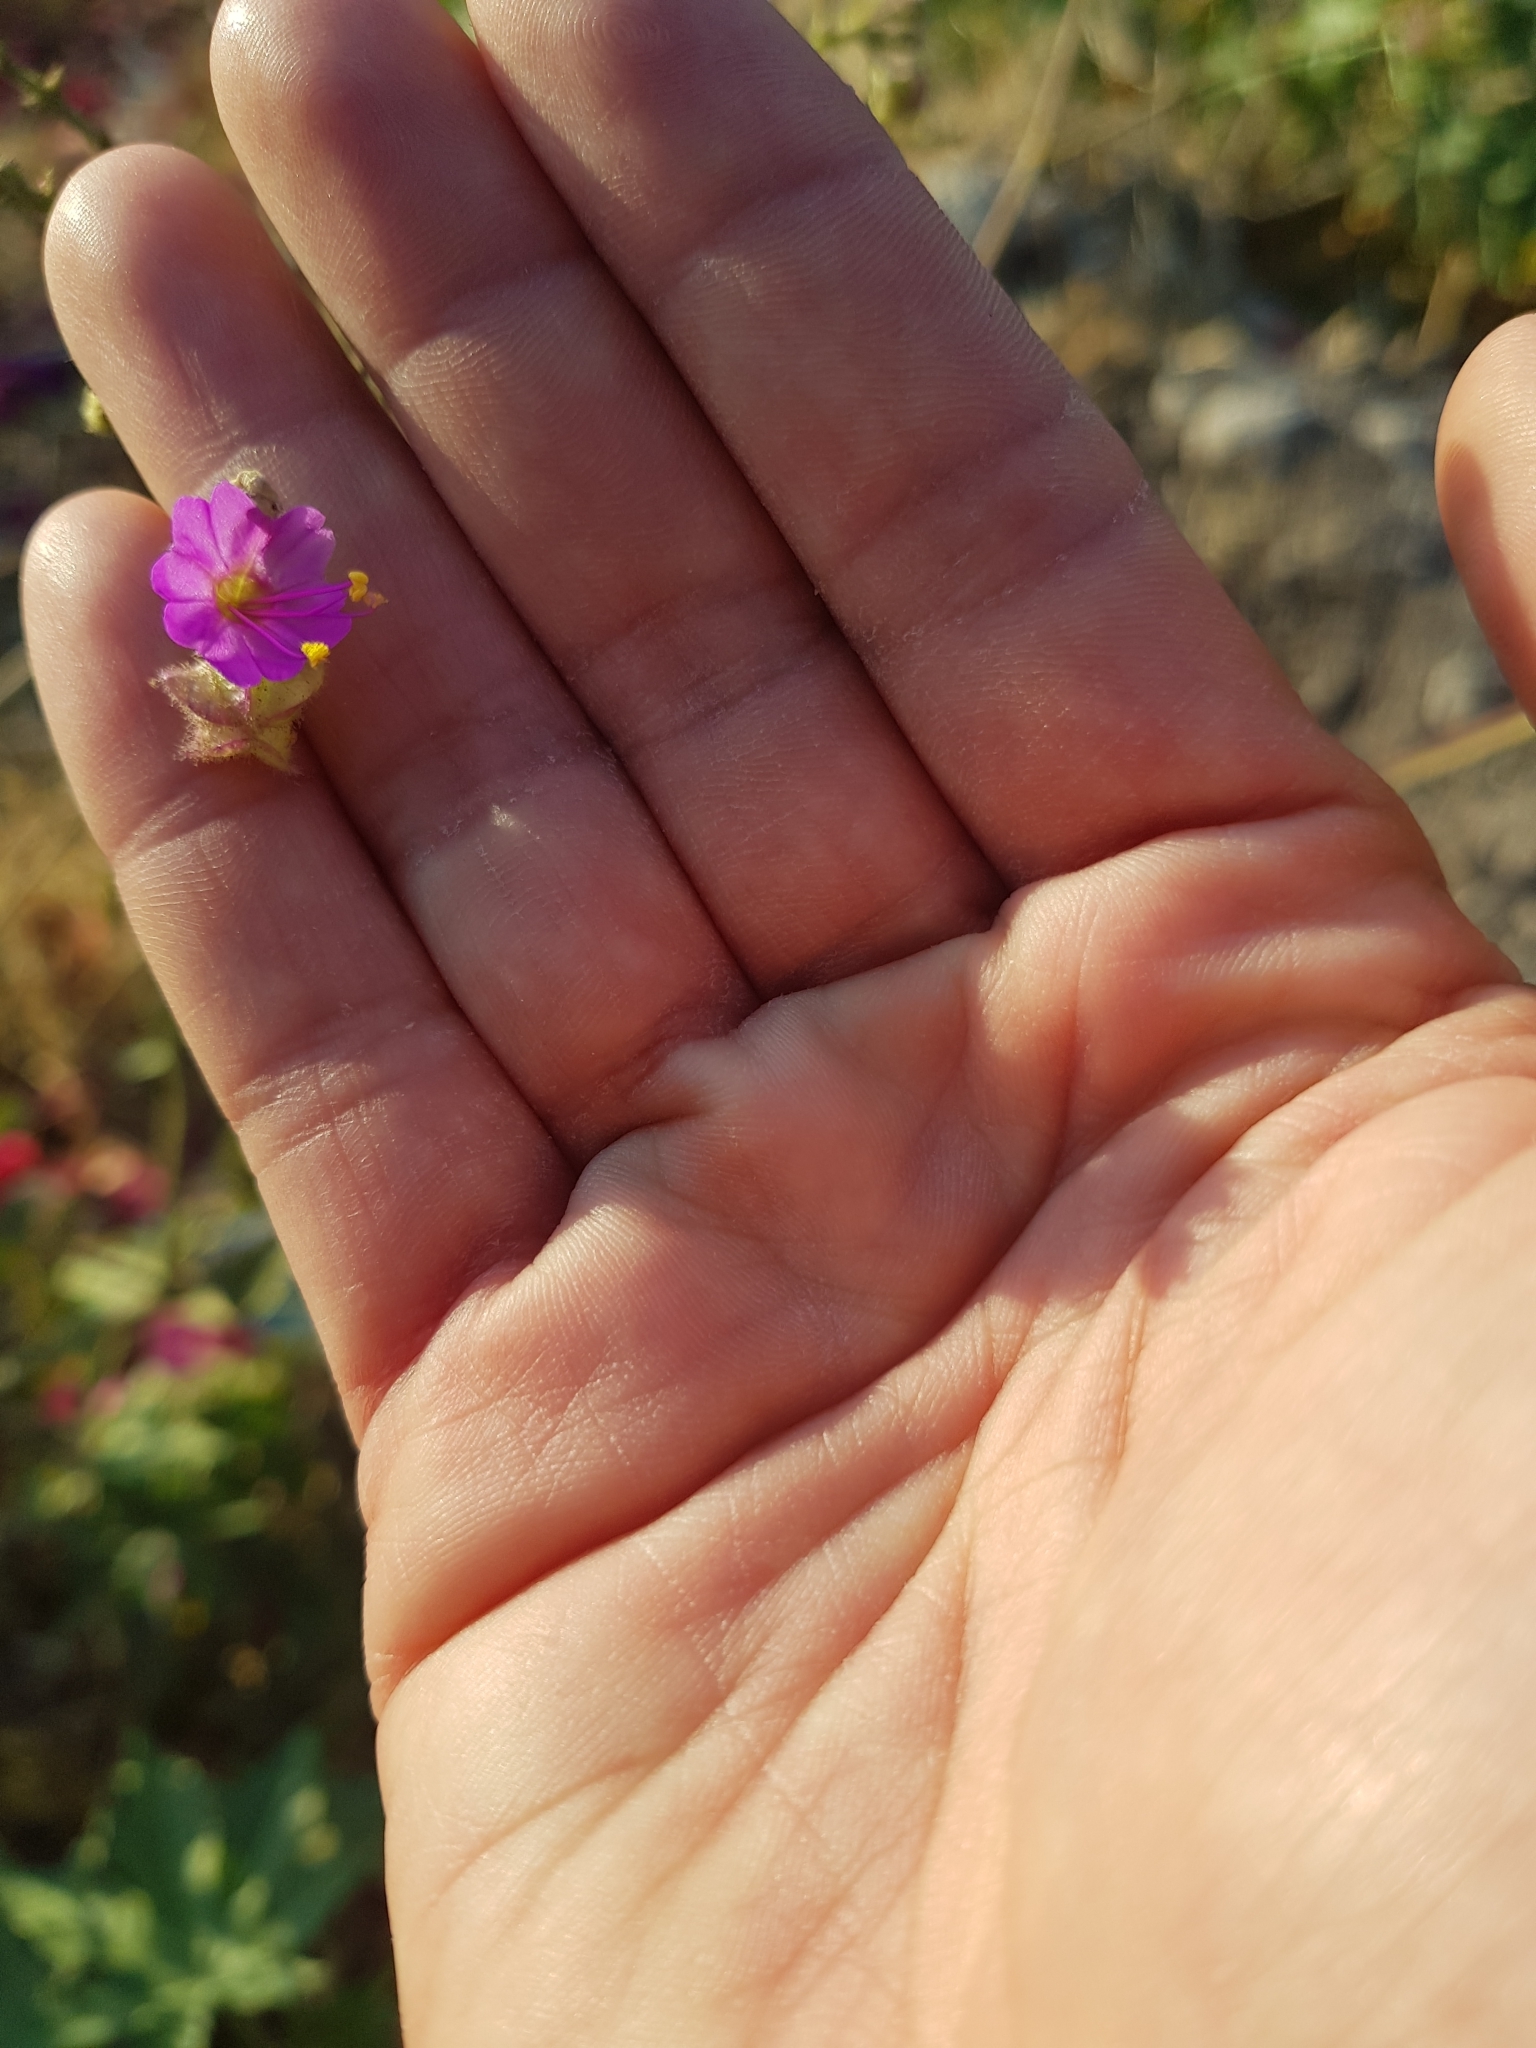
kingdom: Plantae
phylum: Tracheophyta
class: Magnoliopsida
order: Caryophyllales
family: Nyctaginaceae
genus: Mirabilis
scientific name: Mirabilis viscosa
